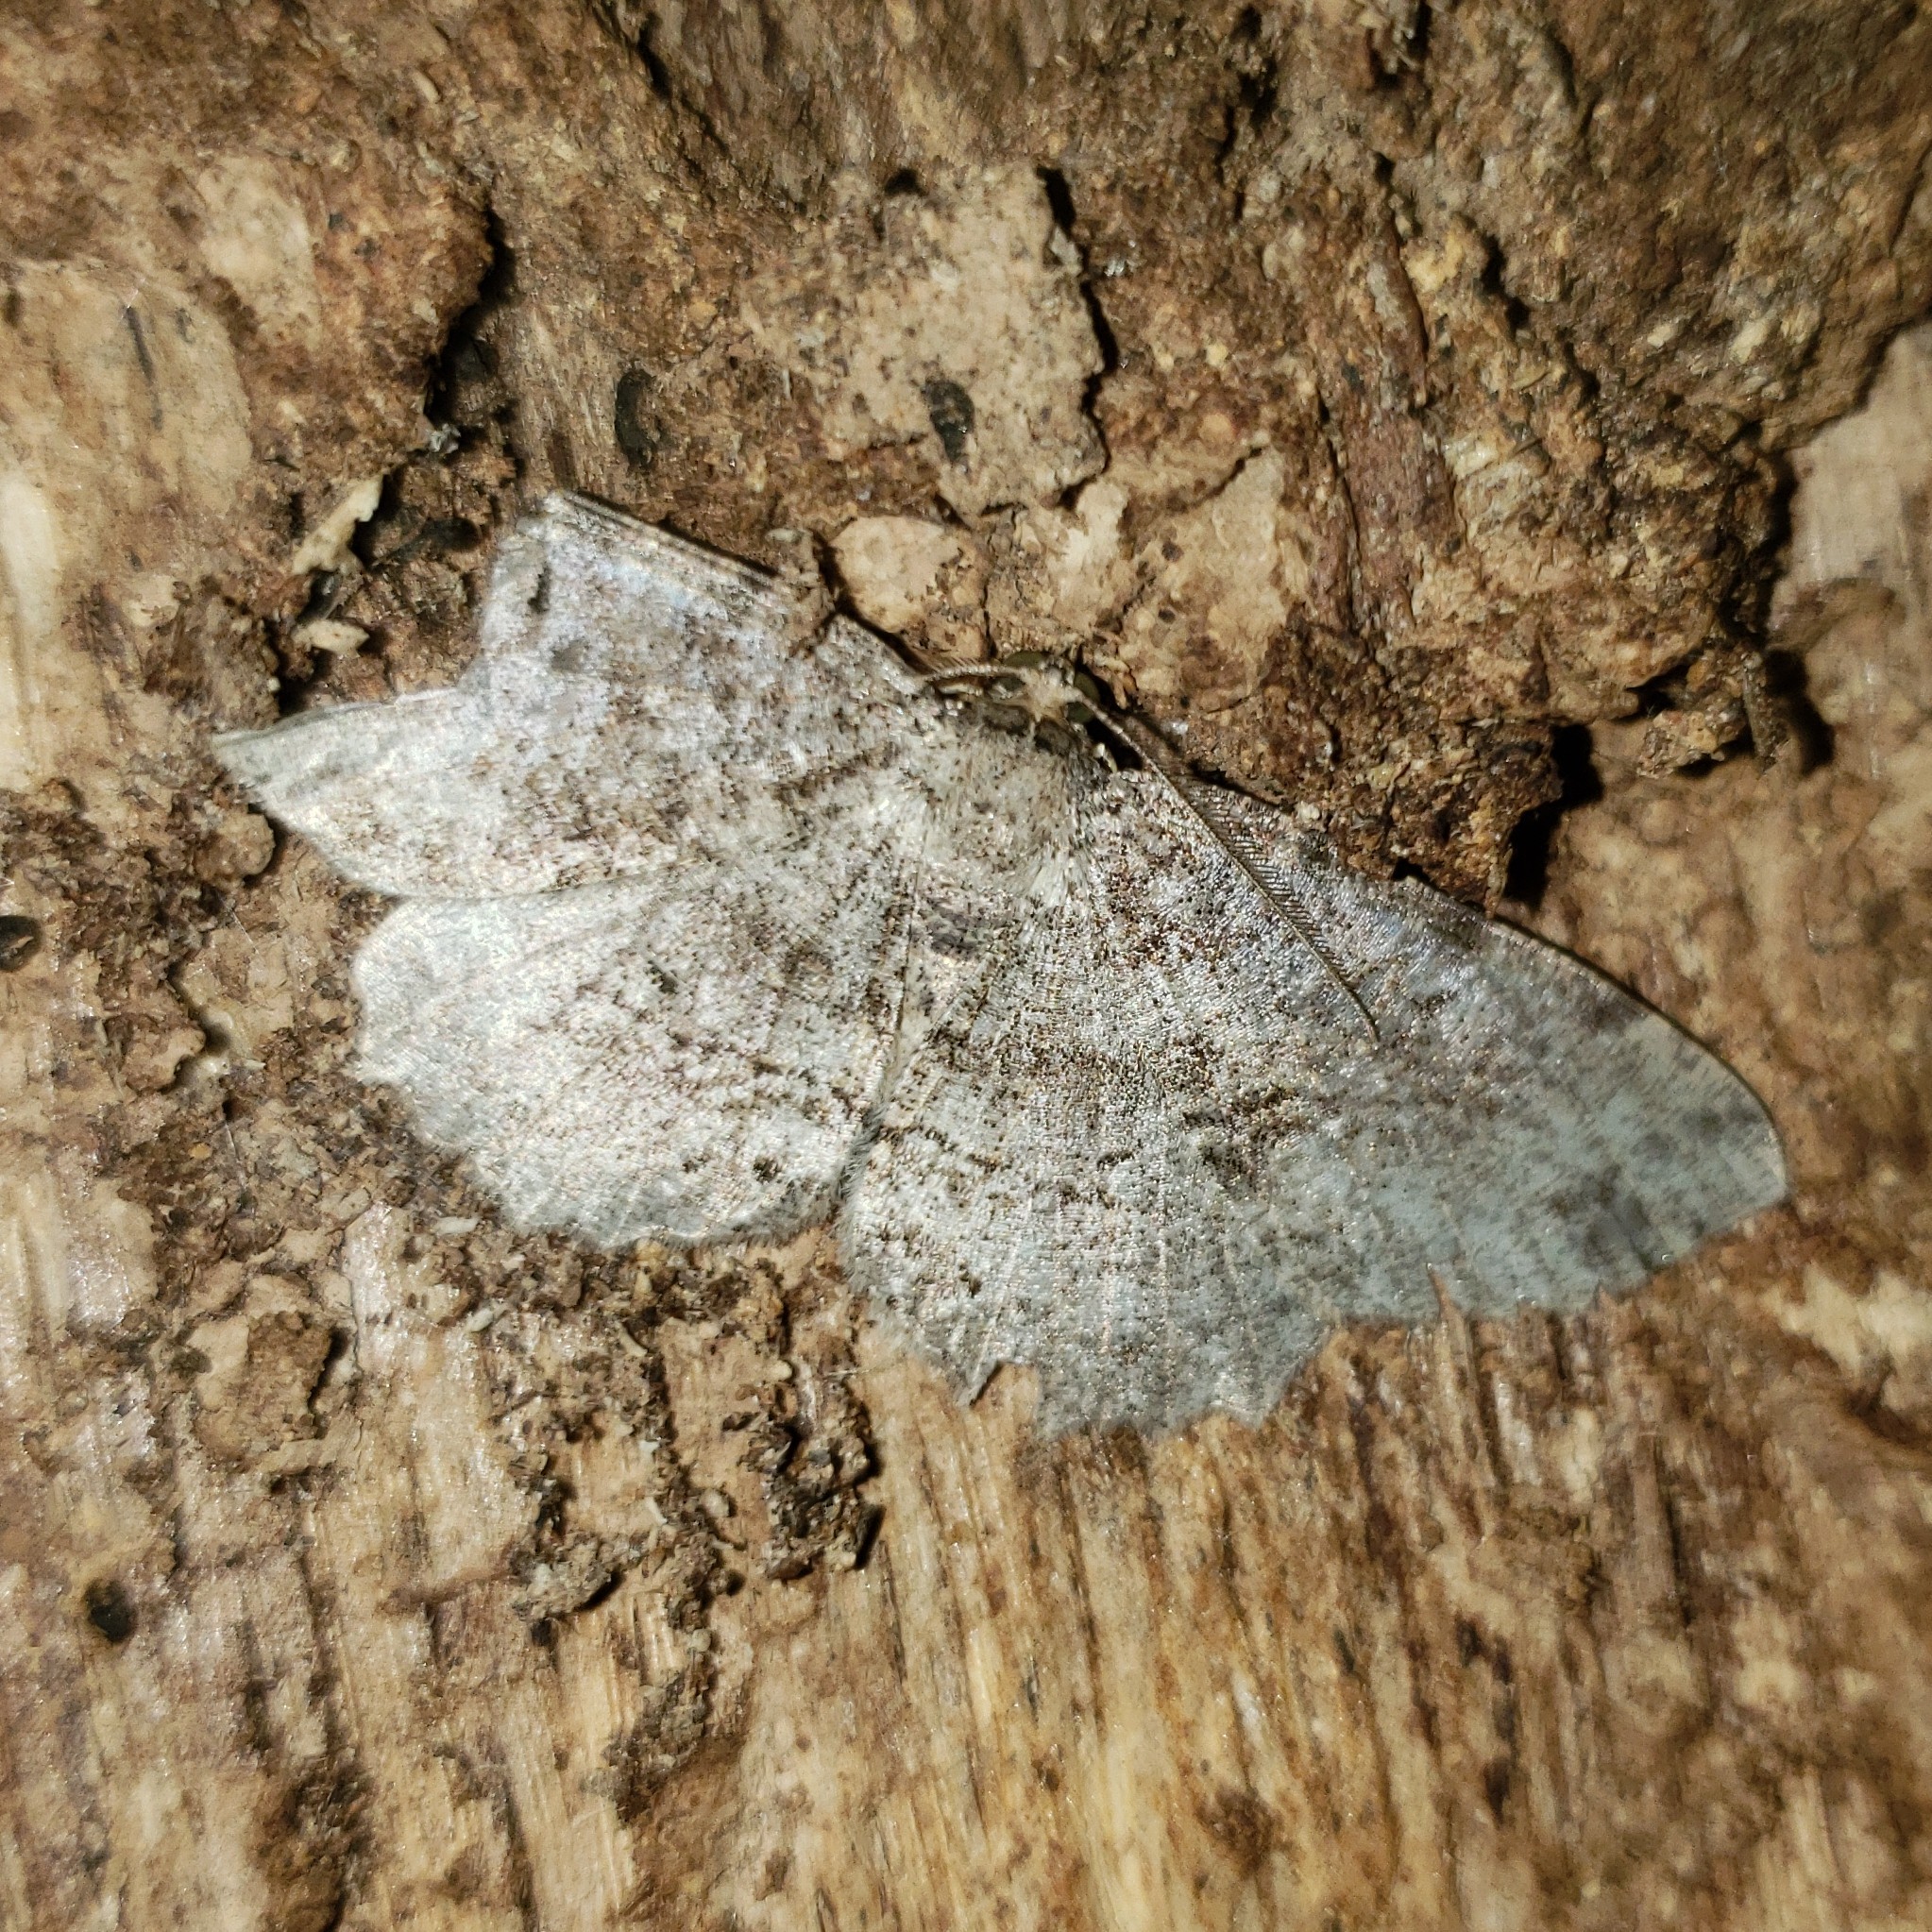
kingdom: Animalia
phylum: Arthropoda
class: Insecta
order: Lepidoptera
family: Geometridae
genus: Melanolophia
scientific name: Melanolophia canadaria
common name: Canadian melanolophia
